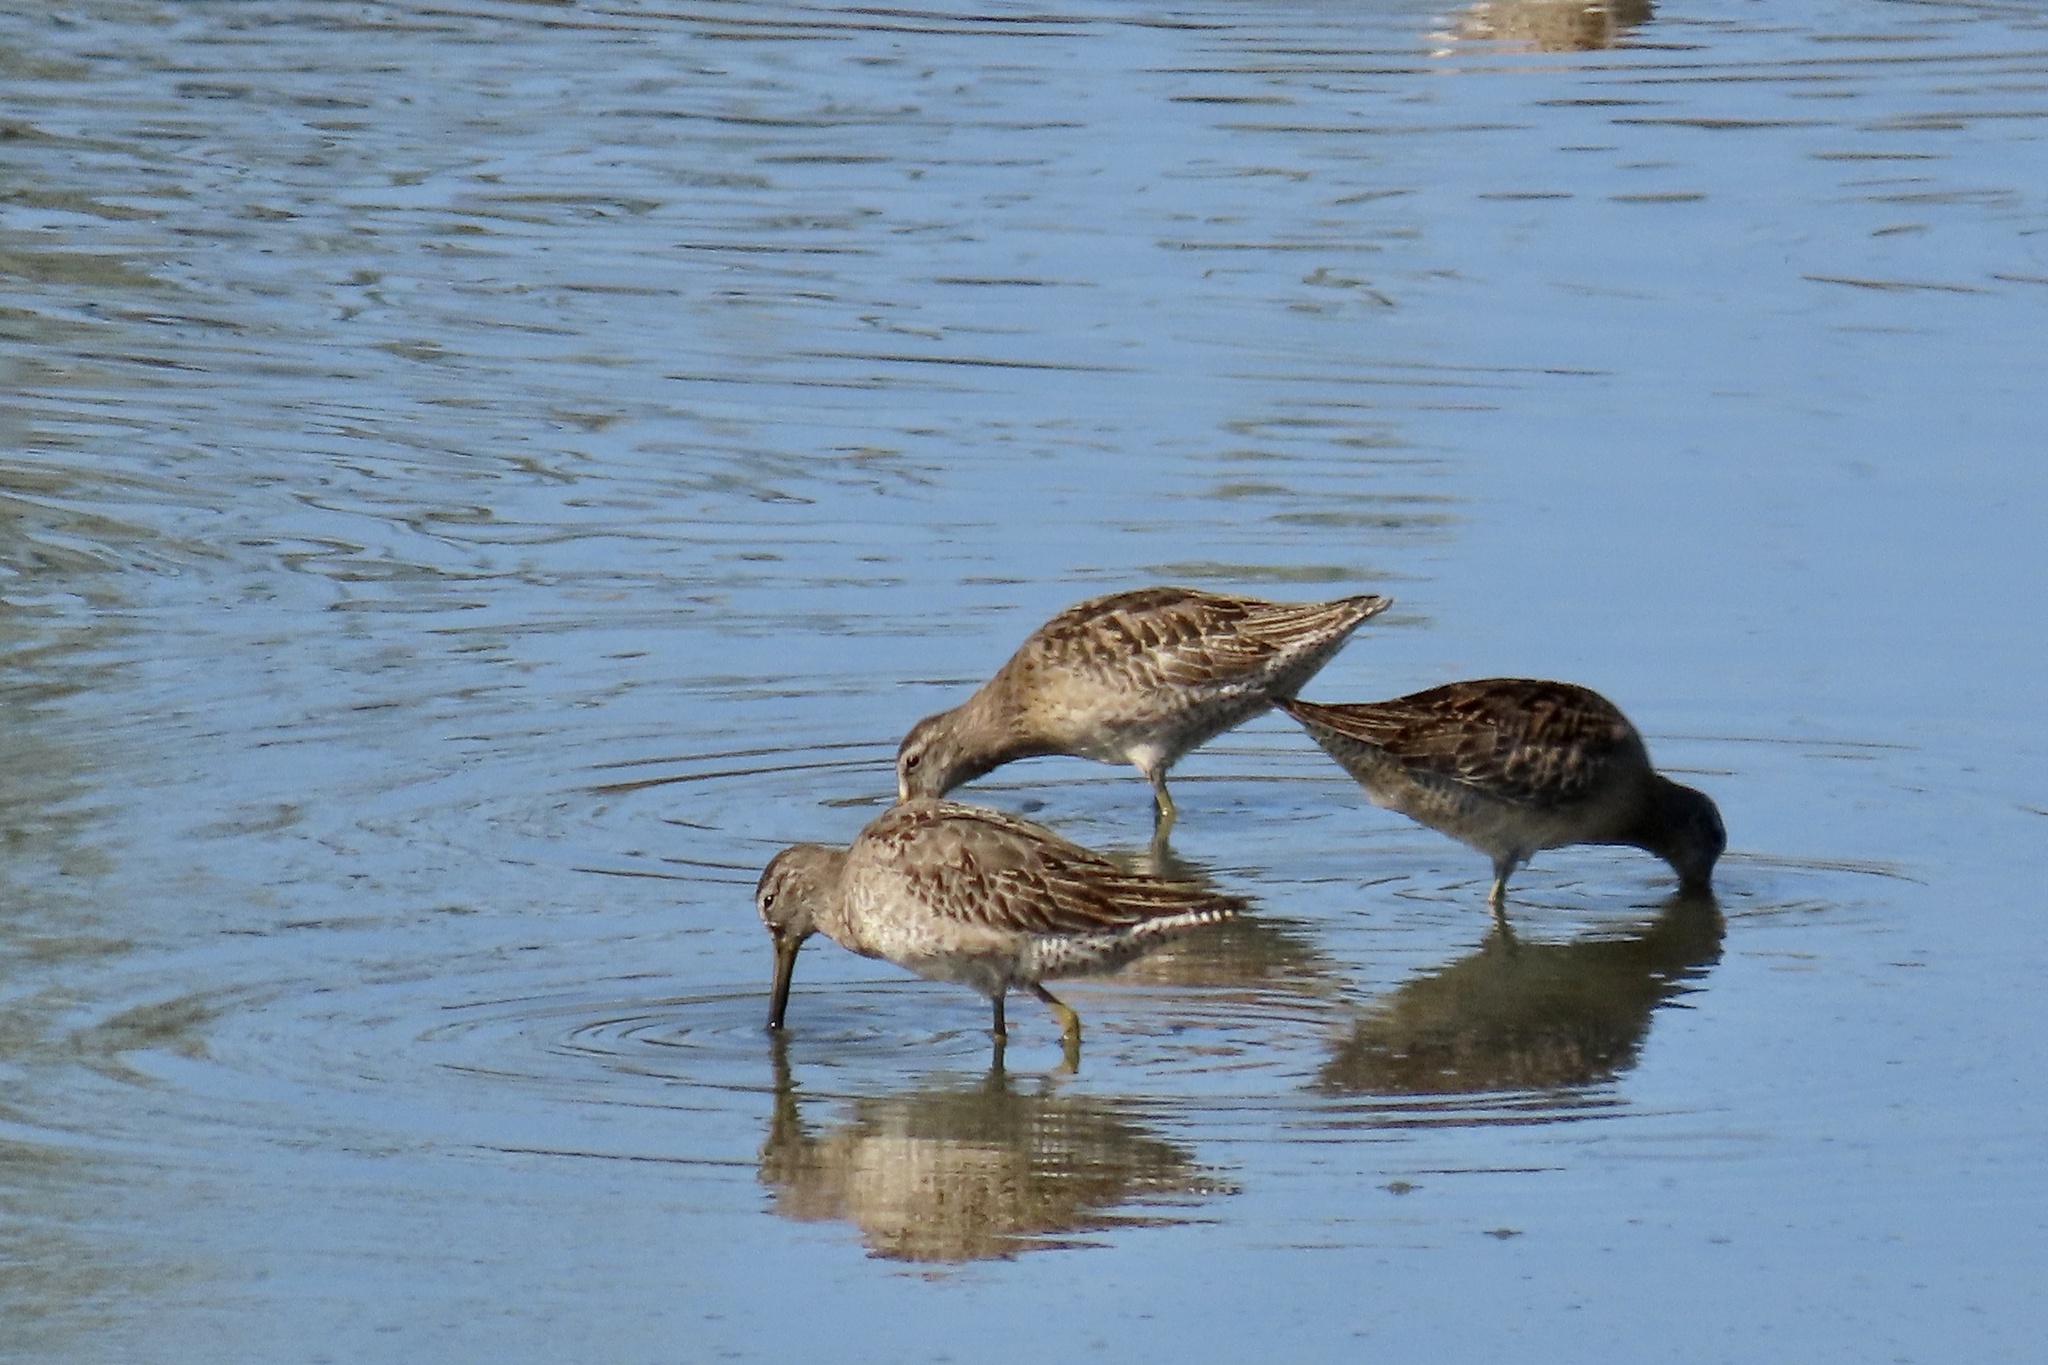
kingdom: Animalia
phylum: Chordata
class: Aves
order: Charadriiformes
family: Scolopacidae
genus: Limnodromus
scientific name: Limnodromus griseus
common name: Short-billed dowitcher
